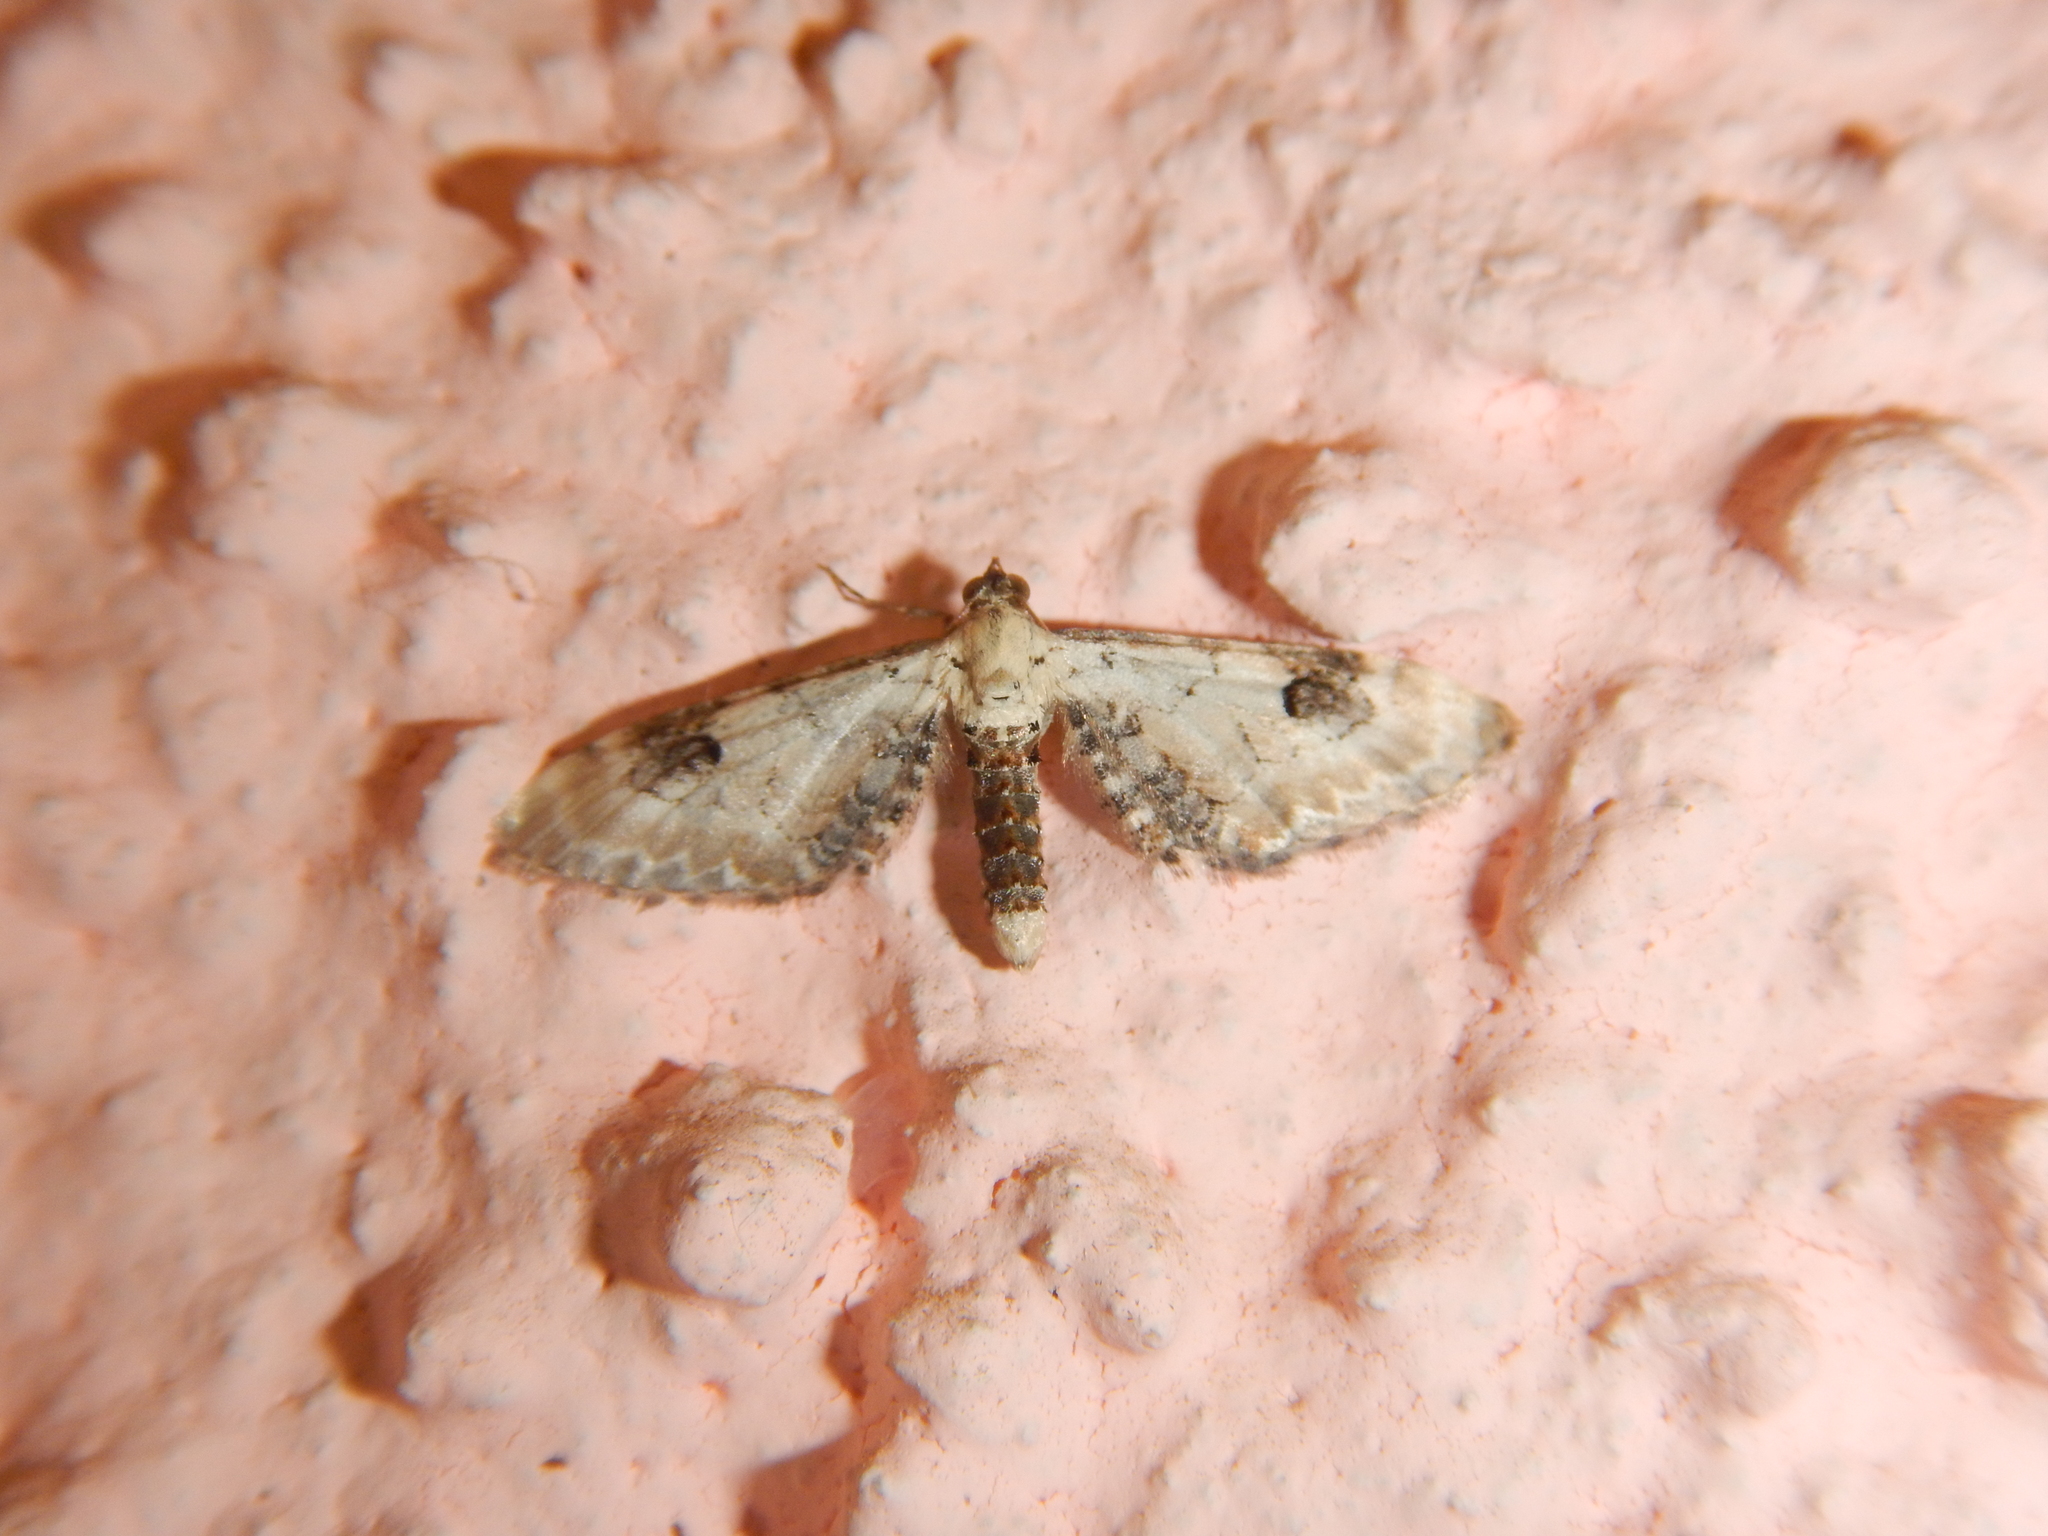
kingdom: Animalia
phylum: Arthropoda
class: Insecta
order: Lepidoptera
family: Geometridae
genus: Eupithecia
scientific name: Eupithecia centaureata
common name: Lime-speck pug
